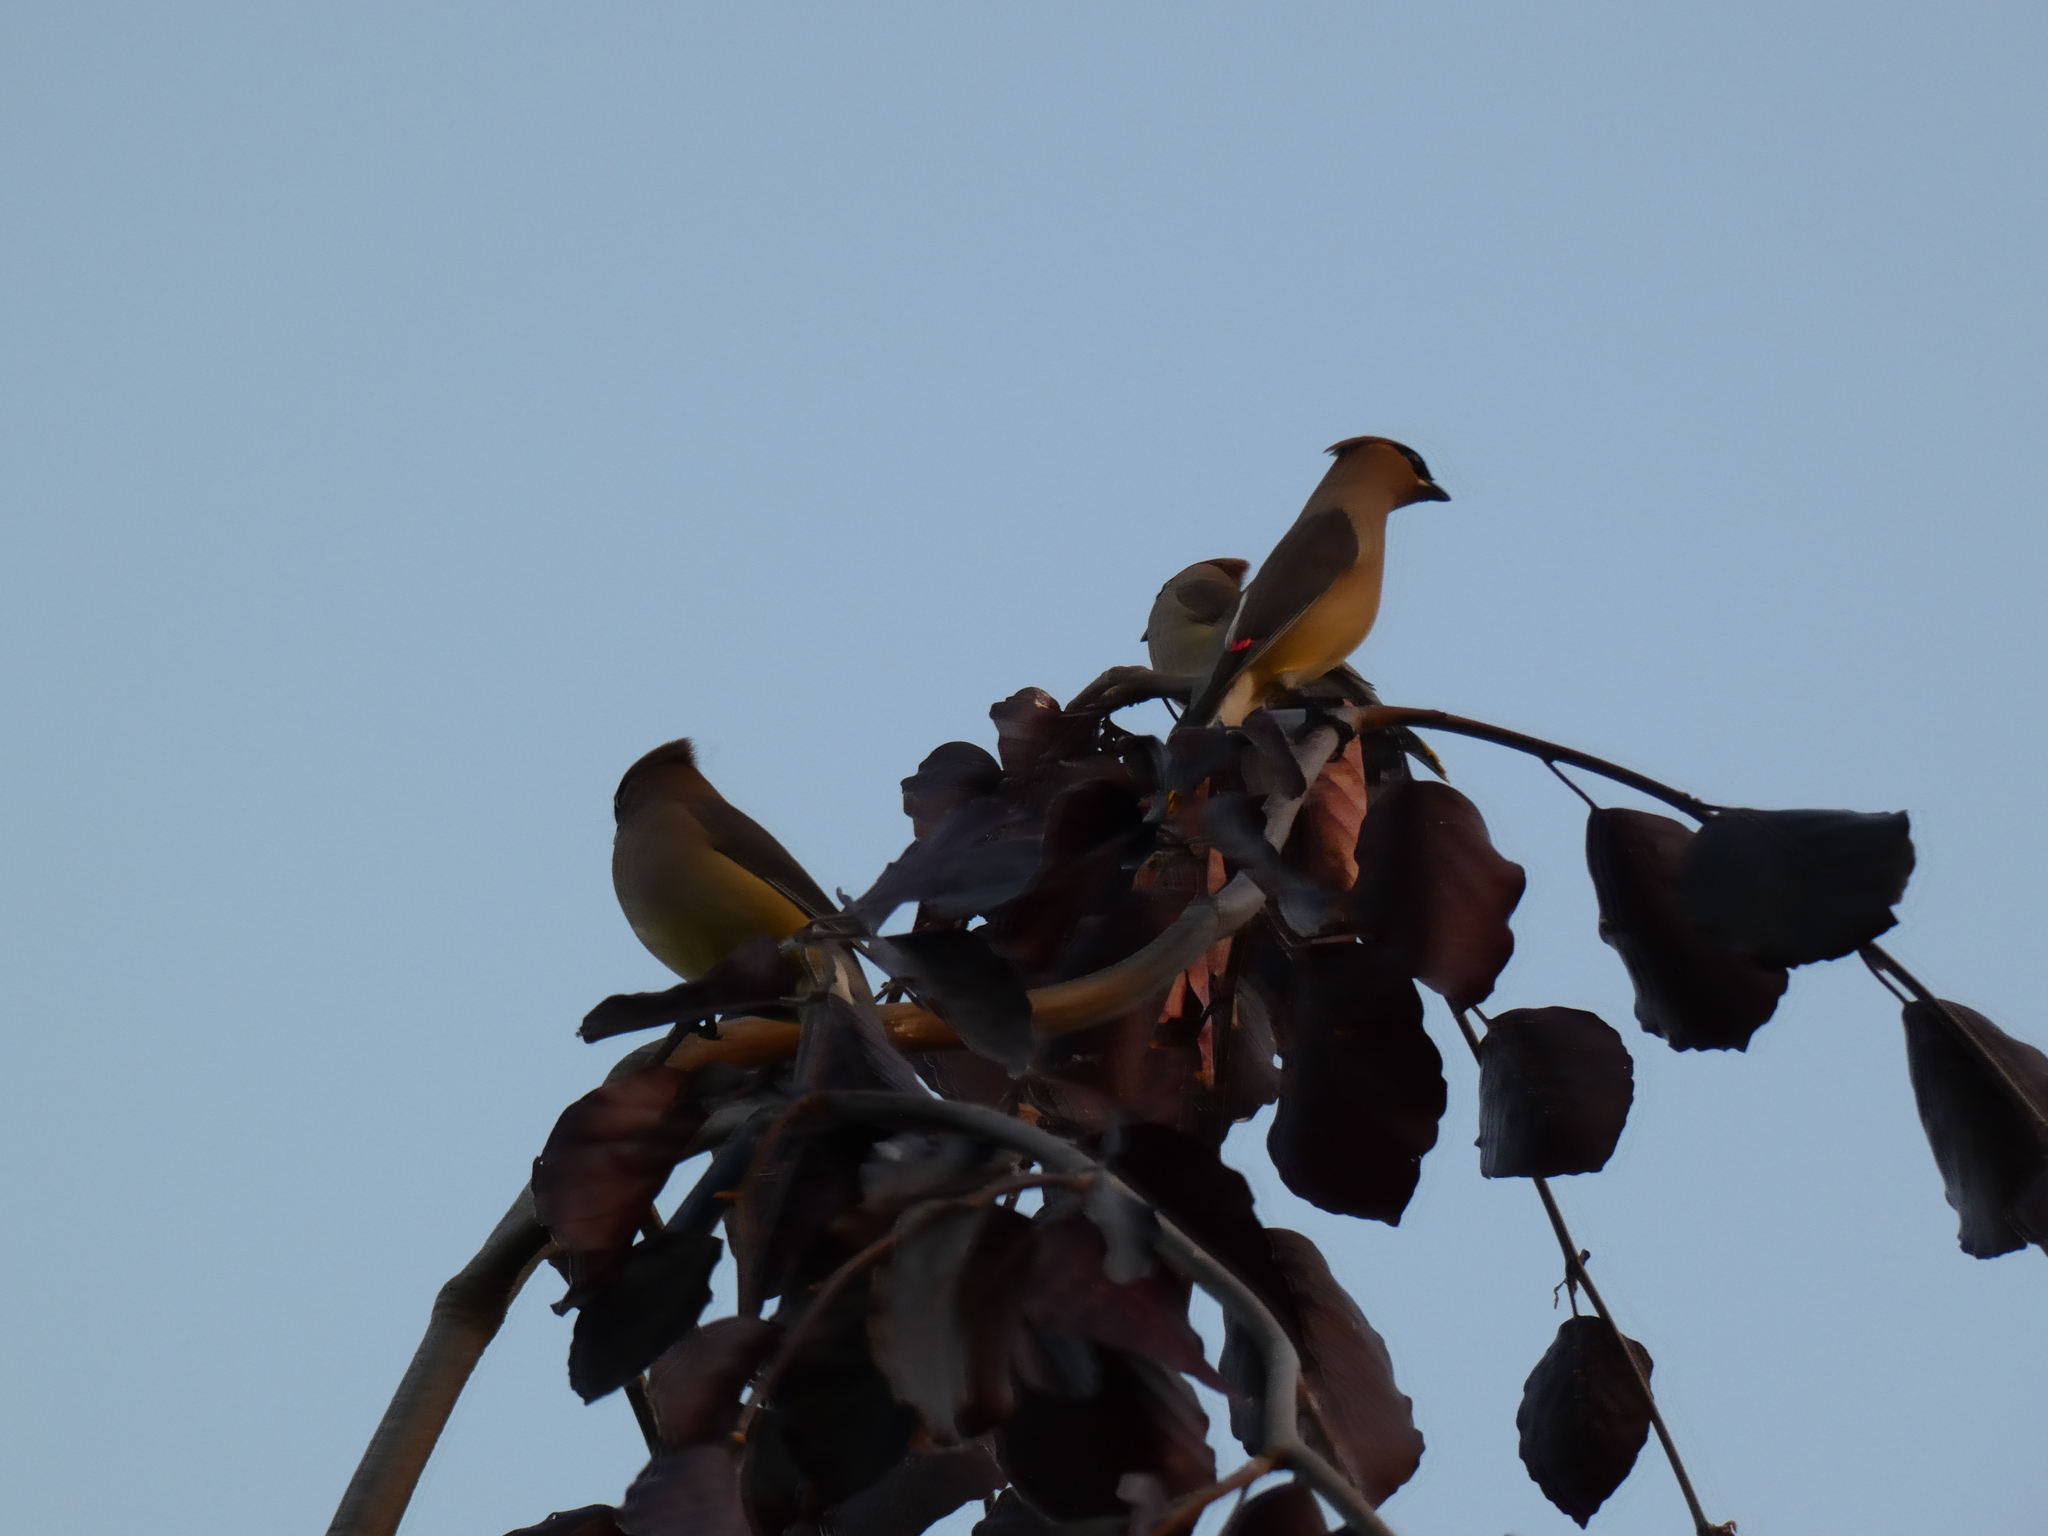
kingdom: Animalia
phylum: Chordata
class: Aves
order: Passeriformes
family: Bombycillidae
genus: Bombycilla
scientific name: Bombycilla cedrorum
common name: Cedar waxwing
